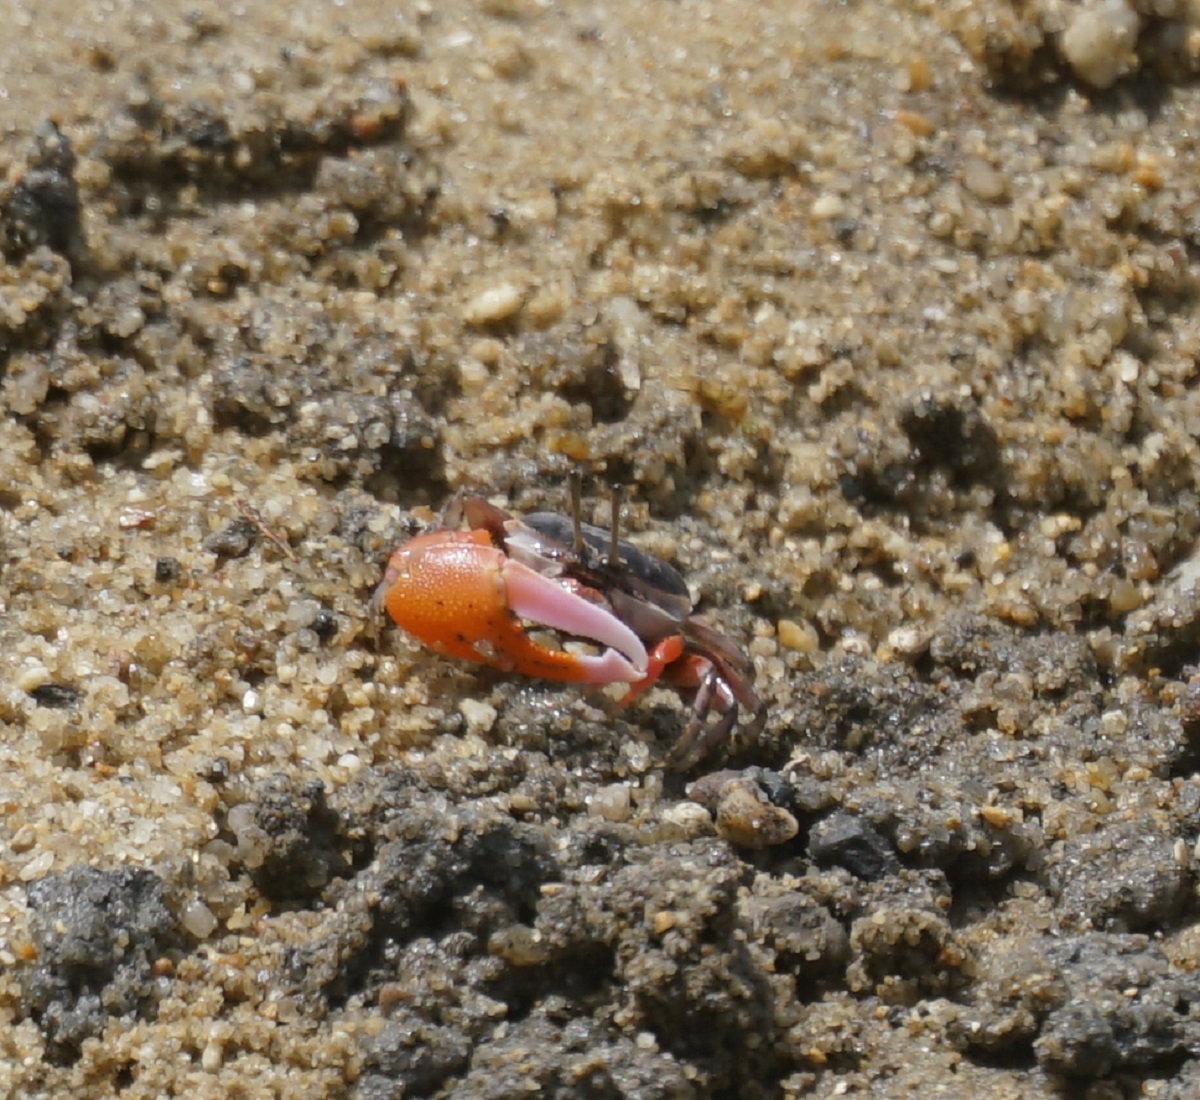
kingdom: Animalia
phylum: Arthropoda
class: Malacostraca
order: Decapoda
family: Ocypodidae
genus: Gelasimus
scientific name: Gelasimus vomeris
